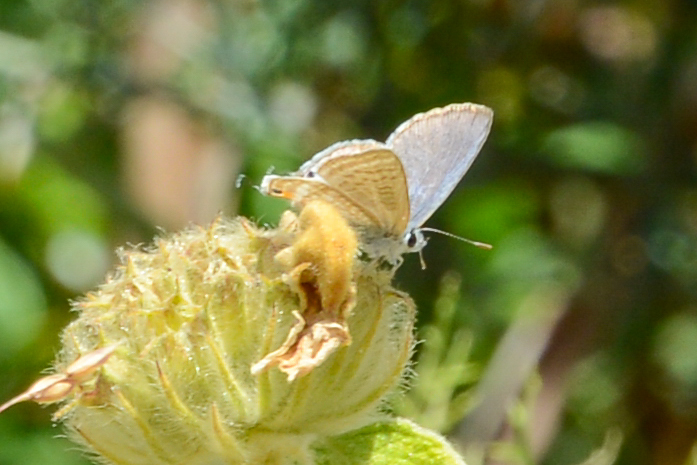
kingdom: Animalia
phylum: Arthropoda
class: Insecta
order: Lepidoptera
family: Lycaenidae
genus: Lampides
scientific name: Lampides boeticus
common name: Long-tailed blue
